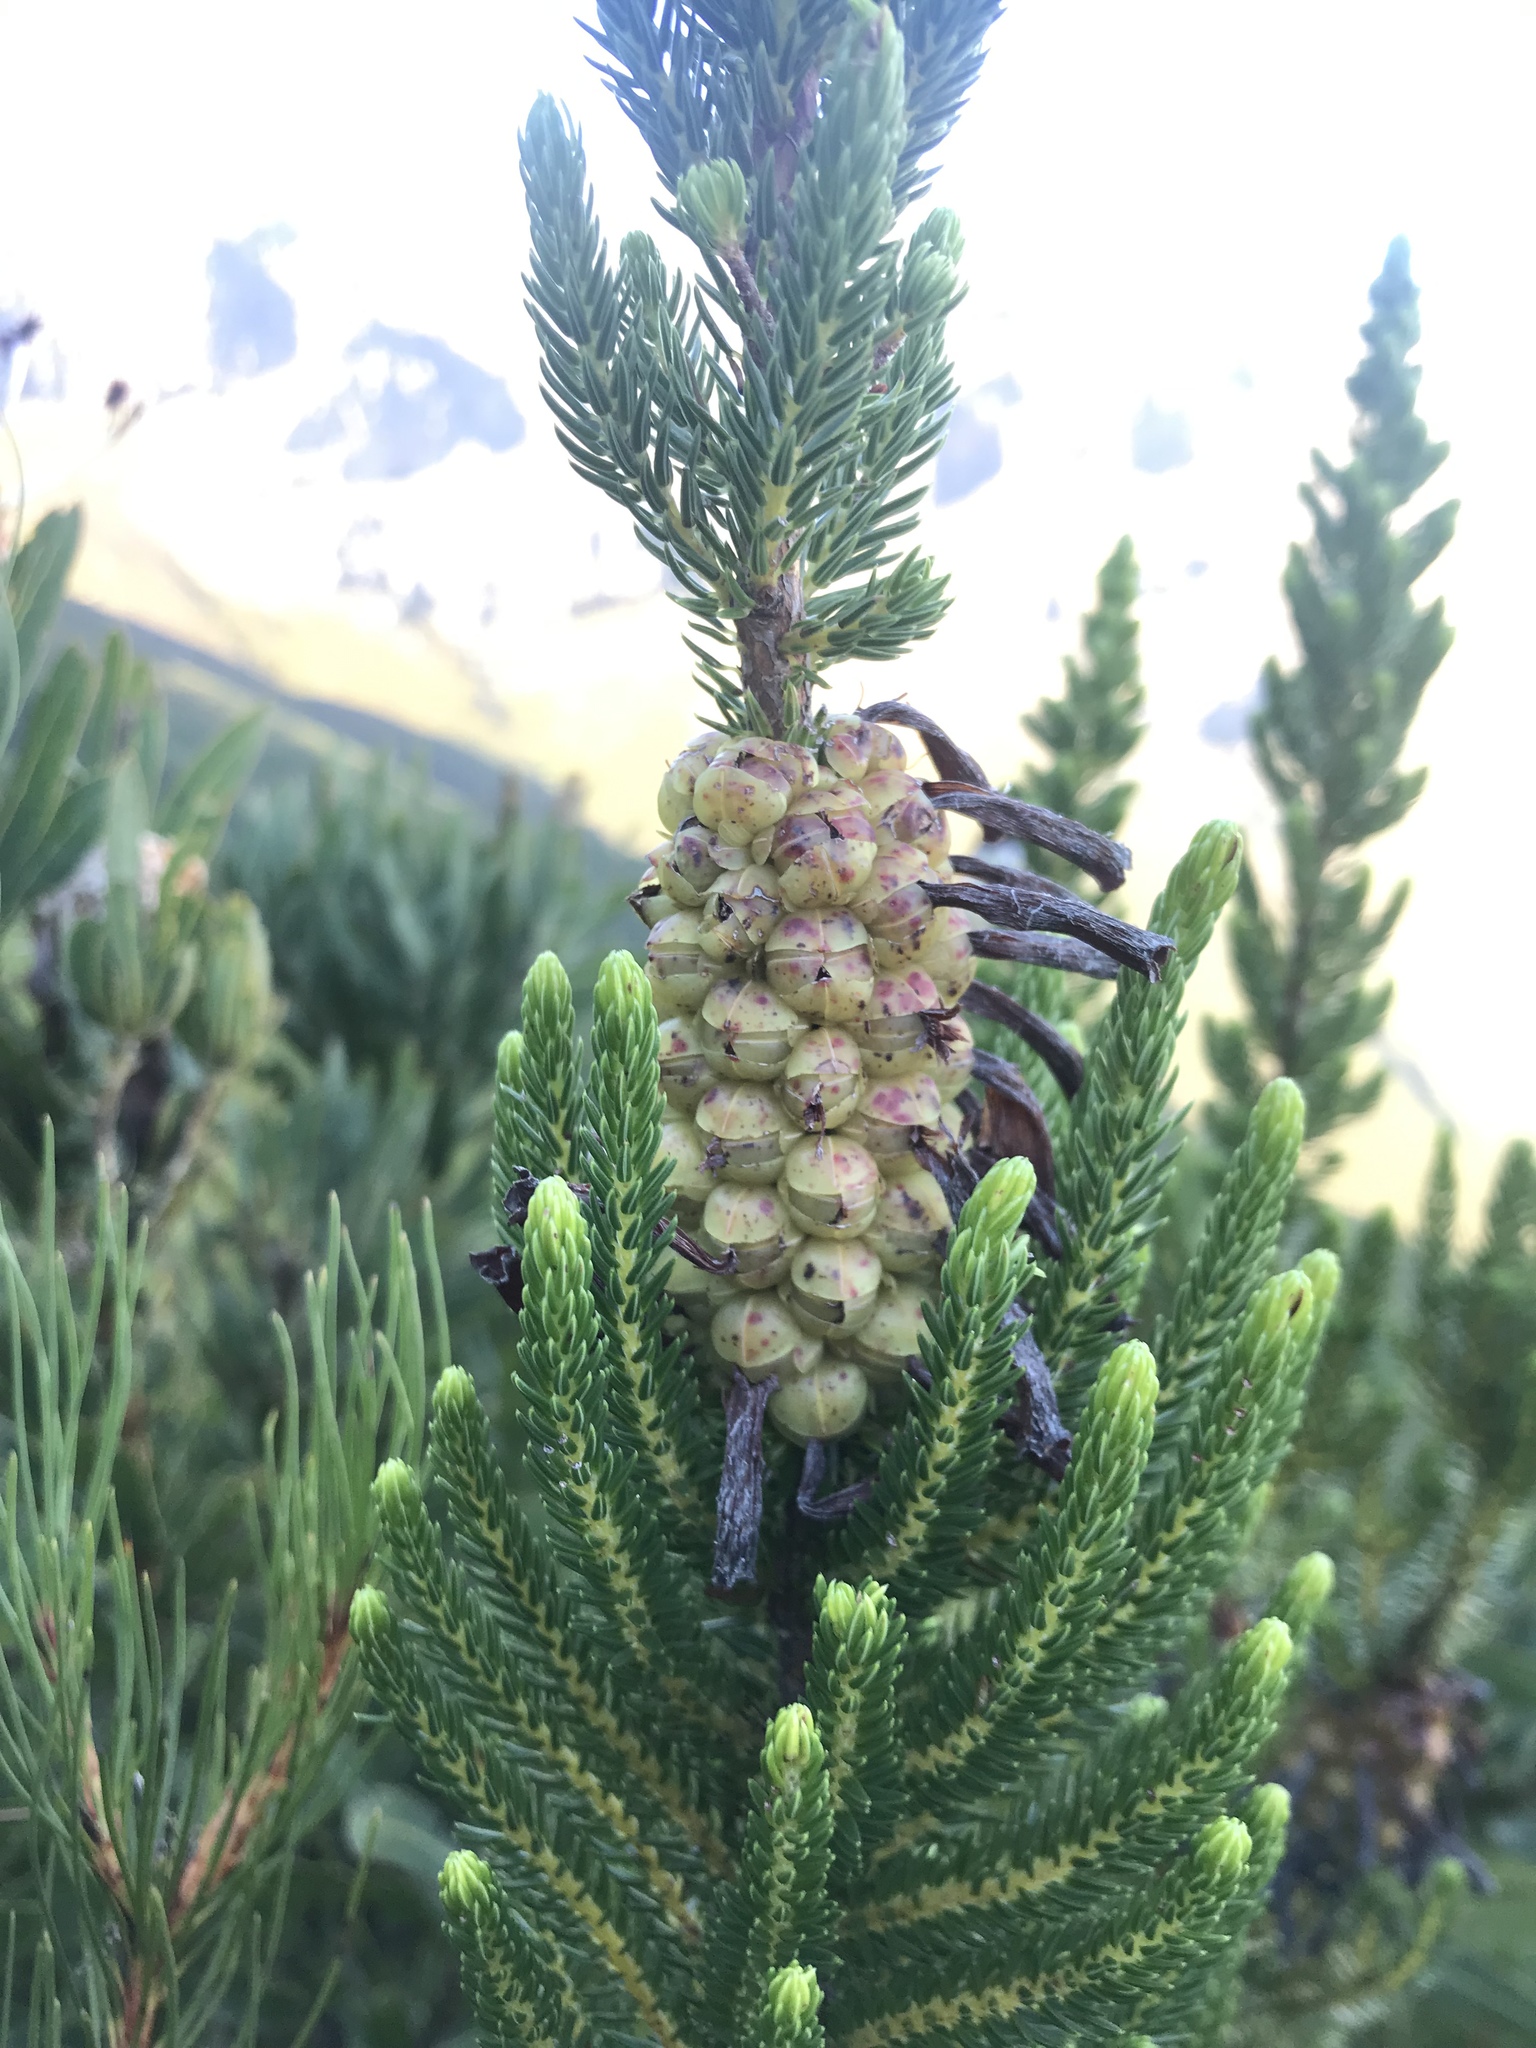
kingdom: Plantae
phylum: Tracheophyta
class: Magnoliopsida
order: Ericales
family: Ericaceae
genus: Erica
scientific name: Erica sessiliflora
